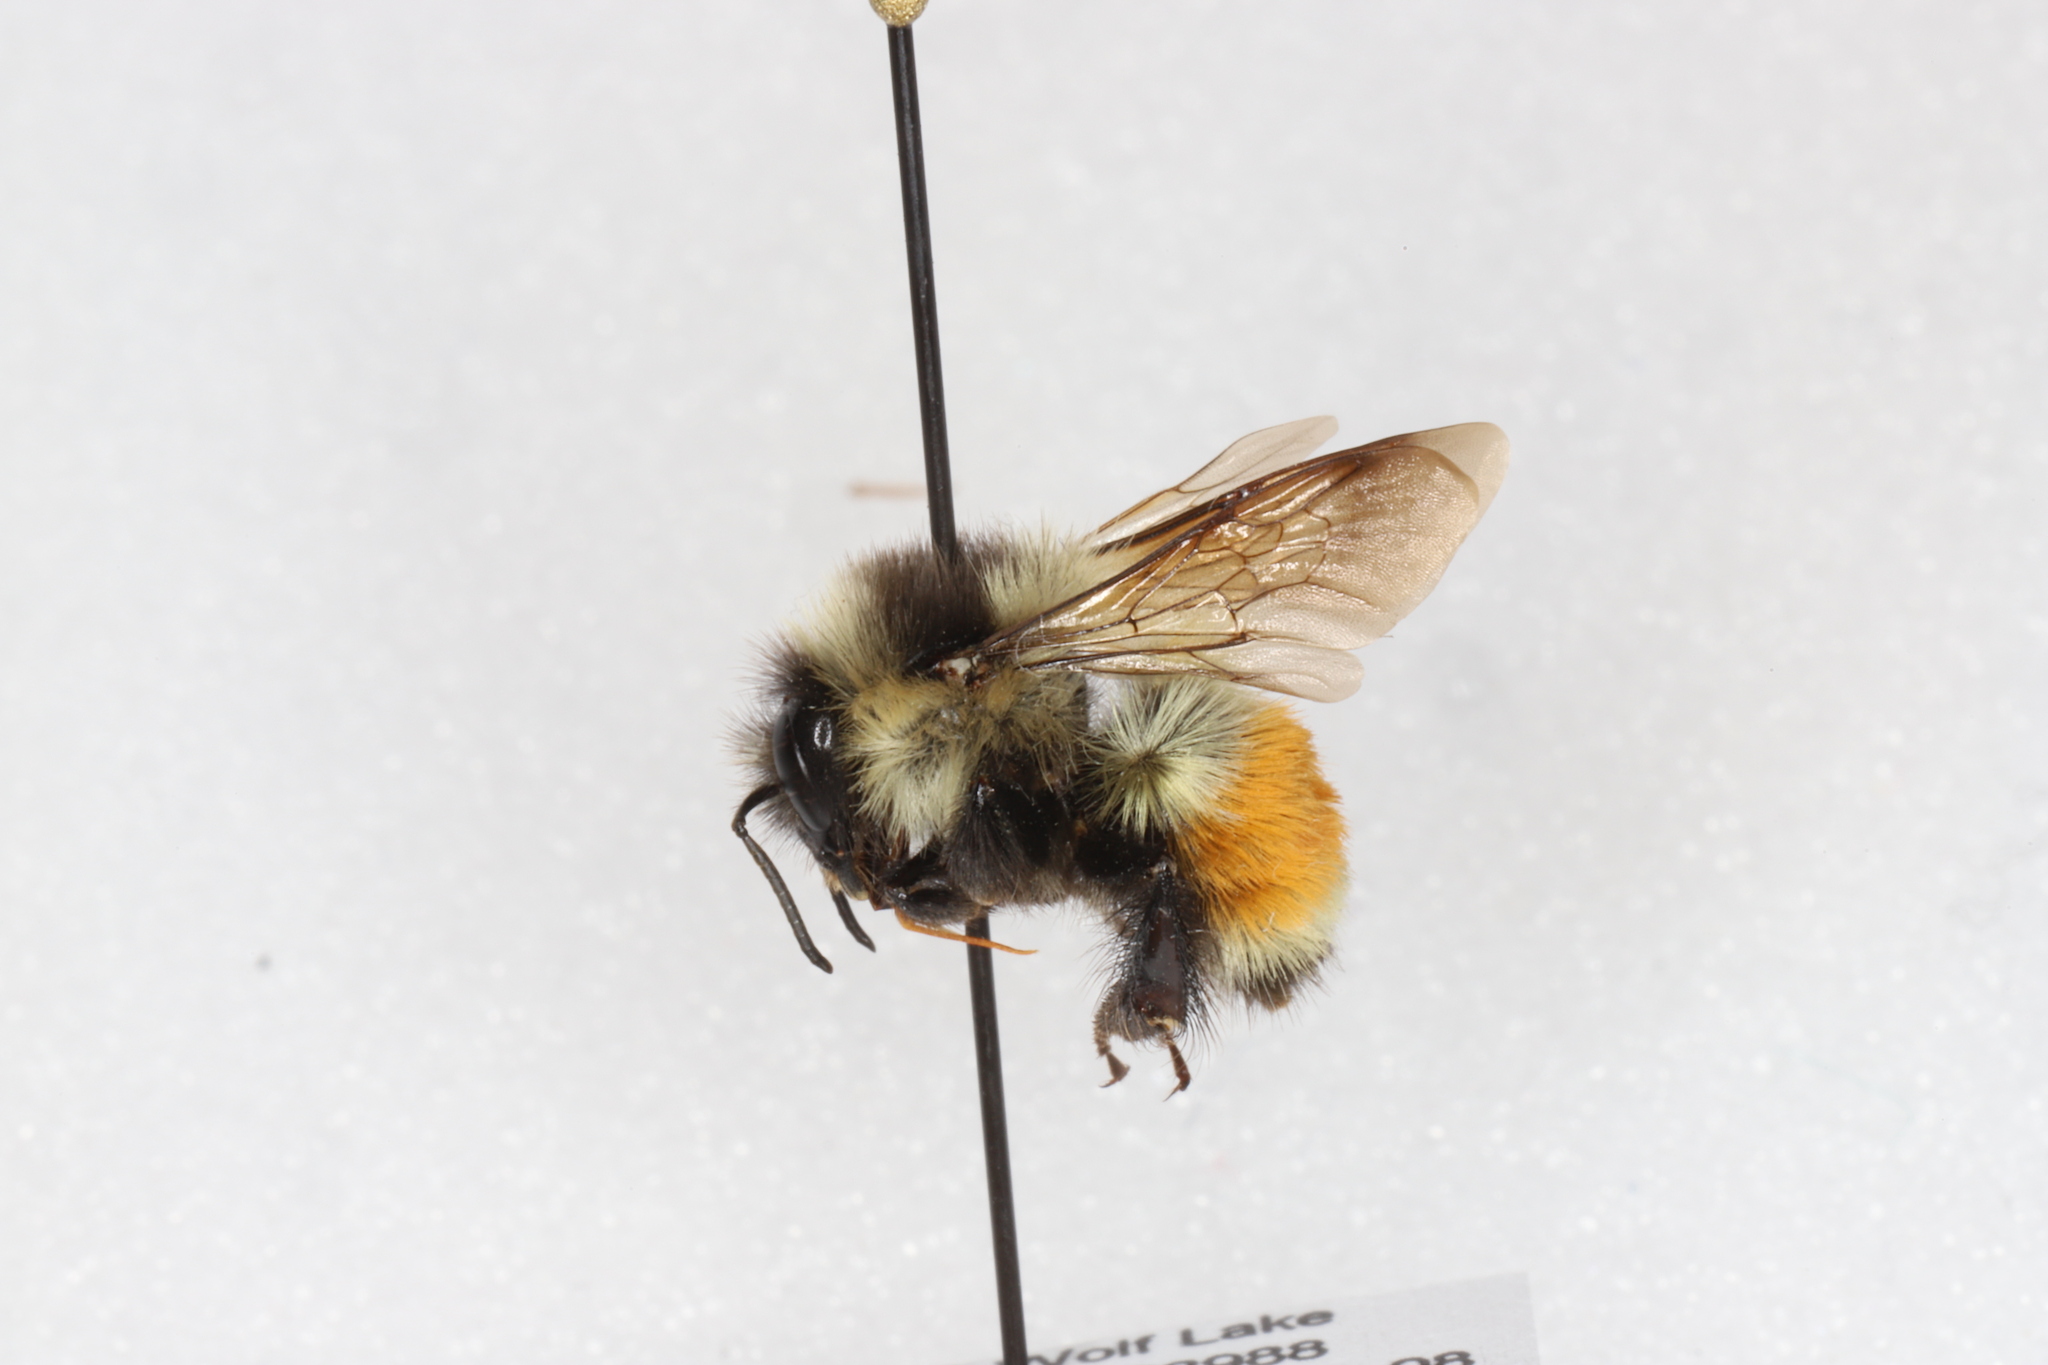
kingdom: Animalia
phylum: Arthropoda
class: Insecta
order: Hymenoptera
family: Apidae
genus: Bombus
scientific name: Bombus ternarius
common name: Tri-colored bumble bee
